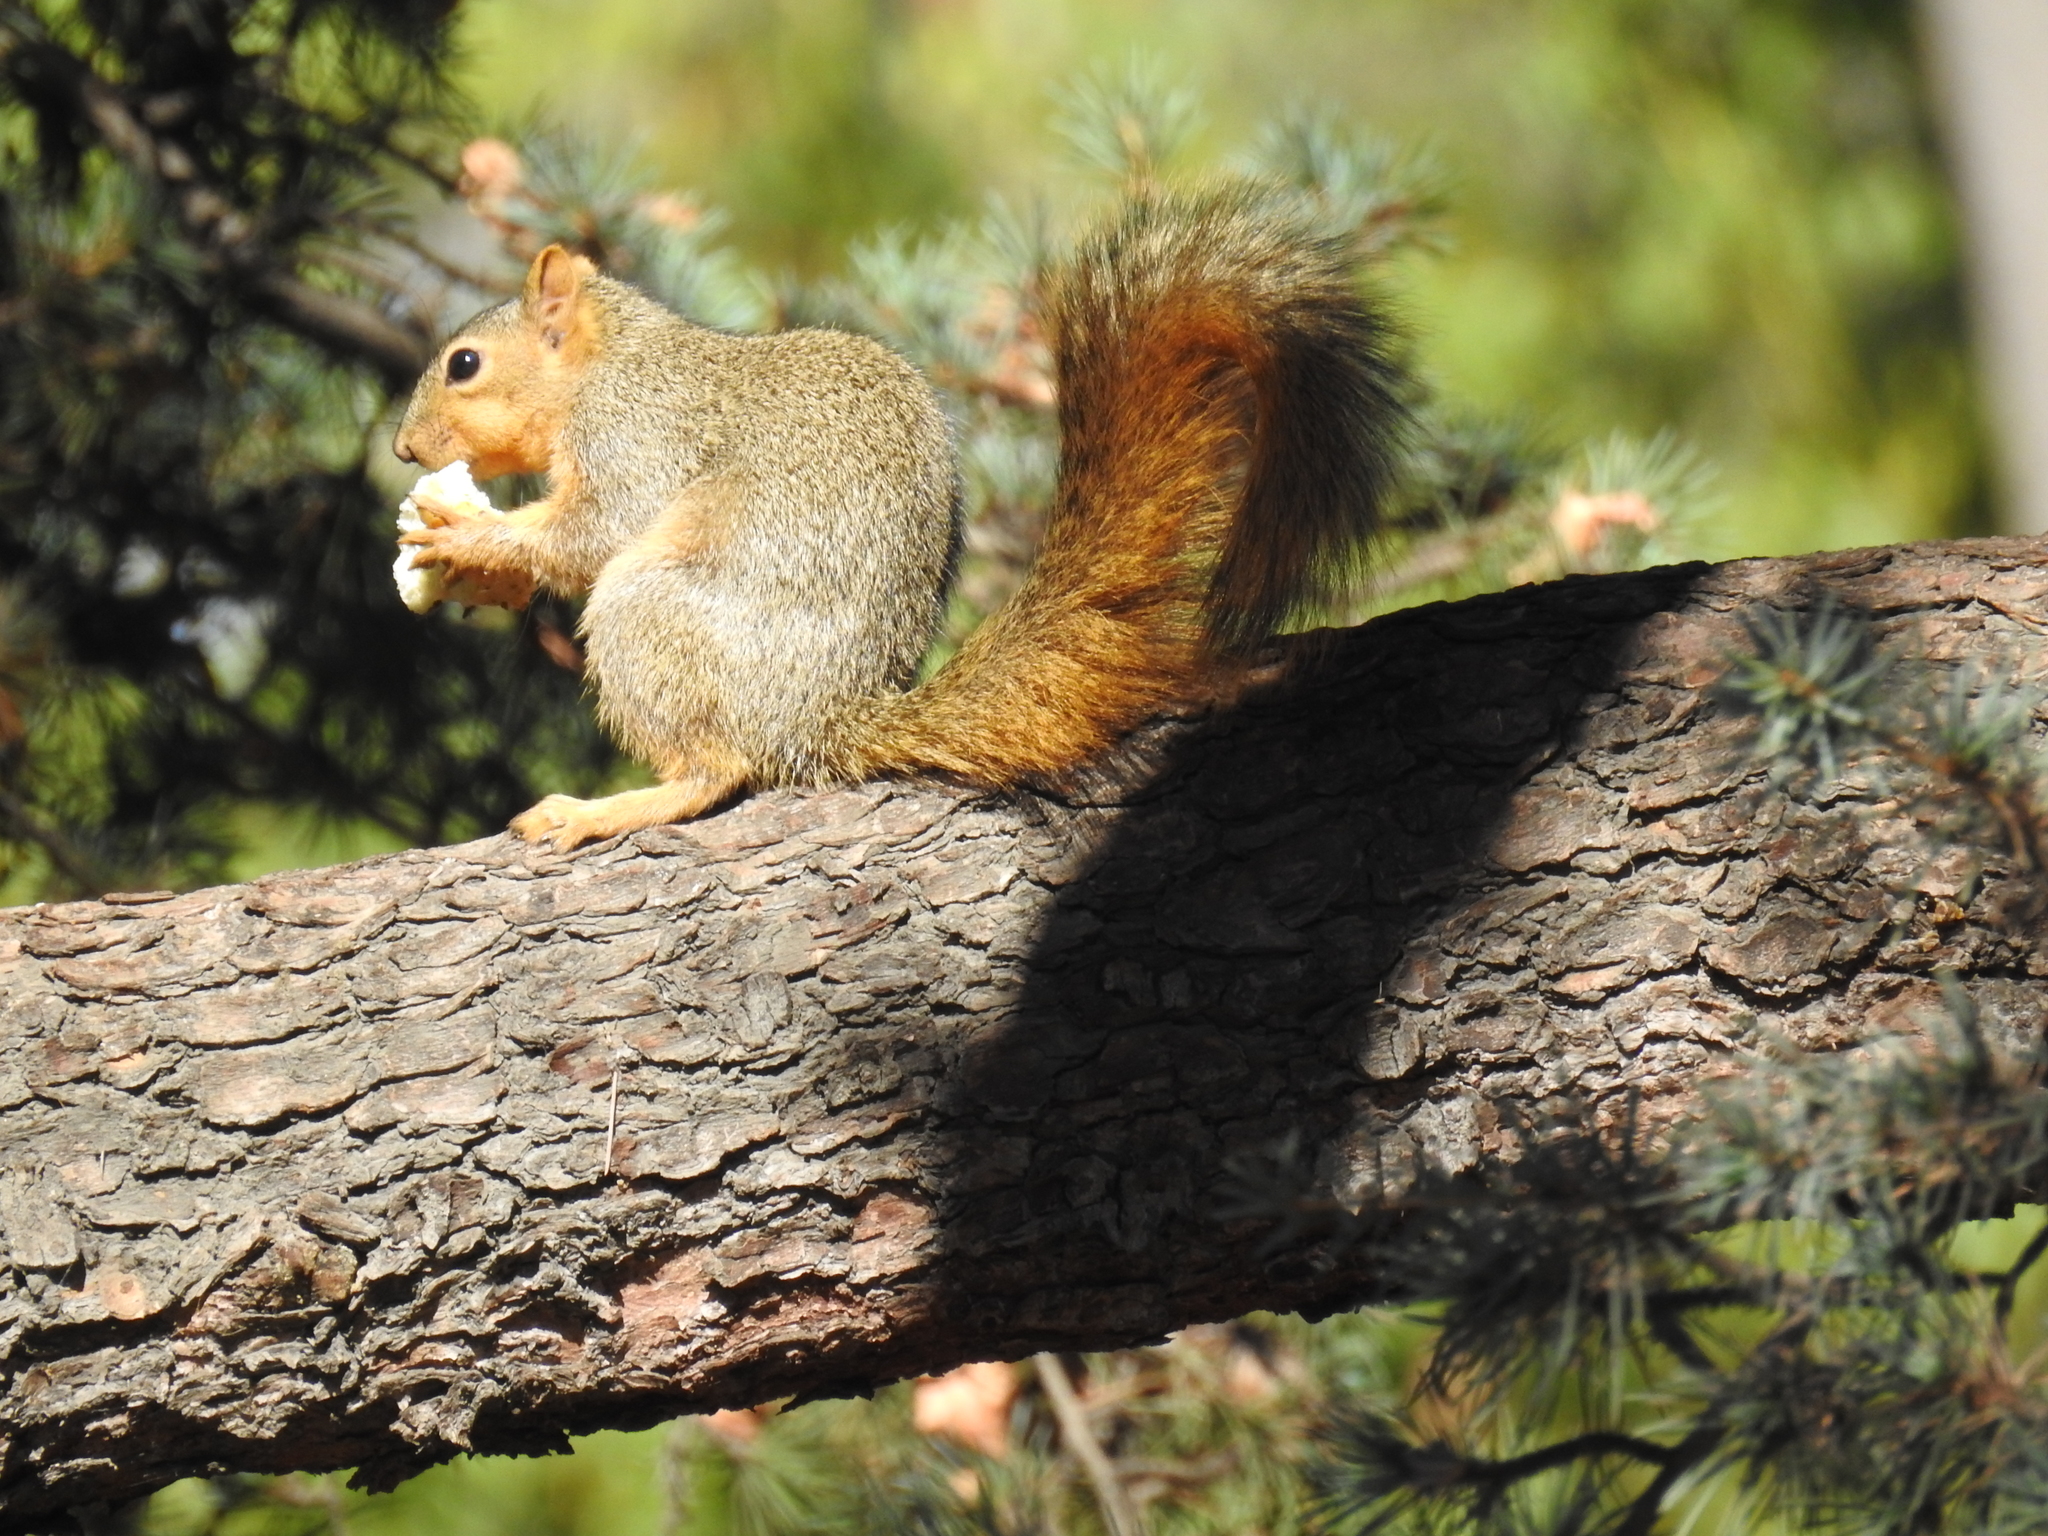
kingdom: Animalia
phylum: Chordata
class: Mammalia
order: Rodentia
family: Sciuridae
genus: Sciurus
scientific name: Sciurus niger
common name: Fox squirrel
